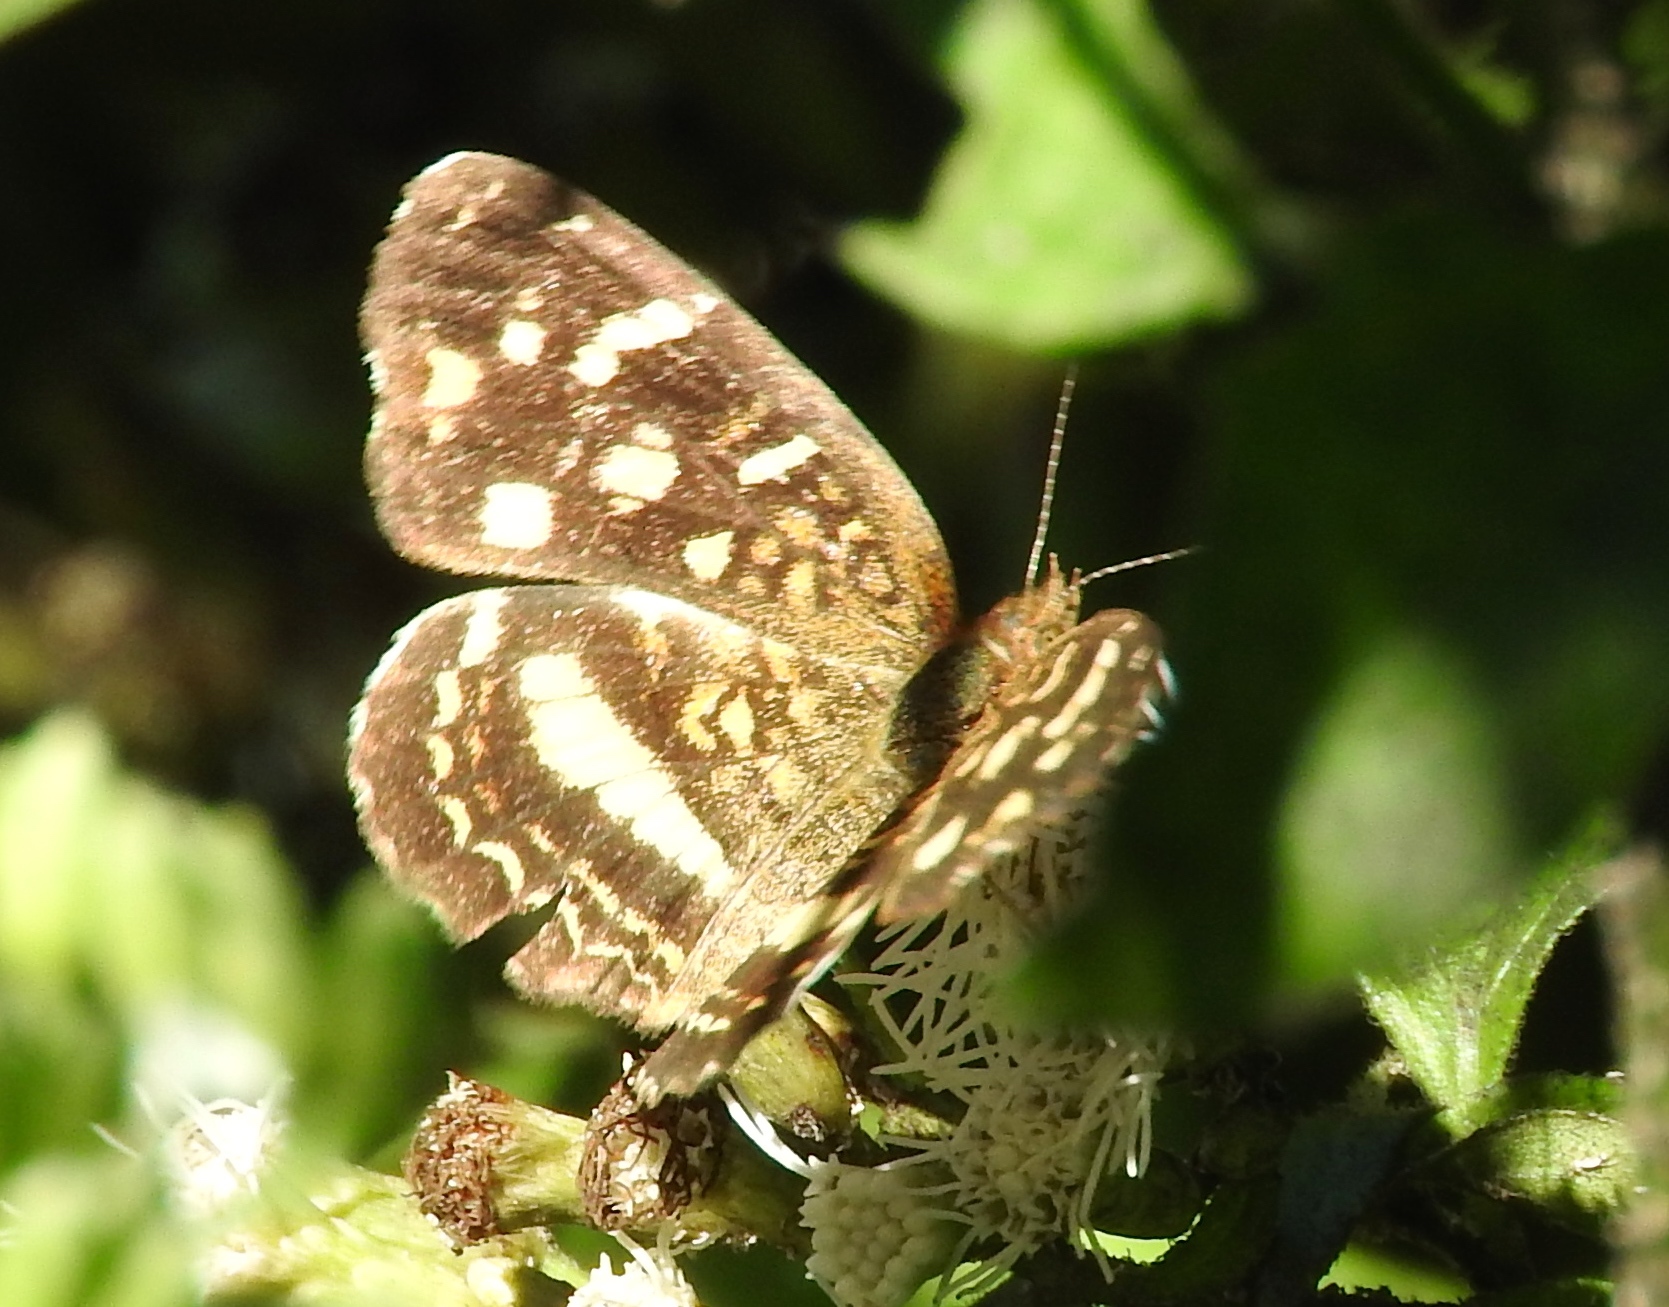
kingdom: Animalia
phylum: Arthropoda
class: Insecta
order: Lepidoptera
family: Nymphalidae
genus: Anthanassa
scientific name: Anthanassa tulcis
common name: Pale-banded crescent
